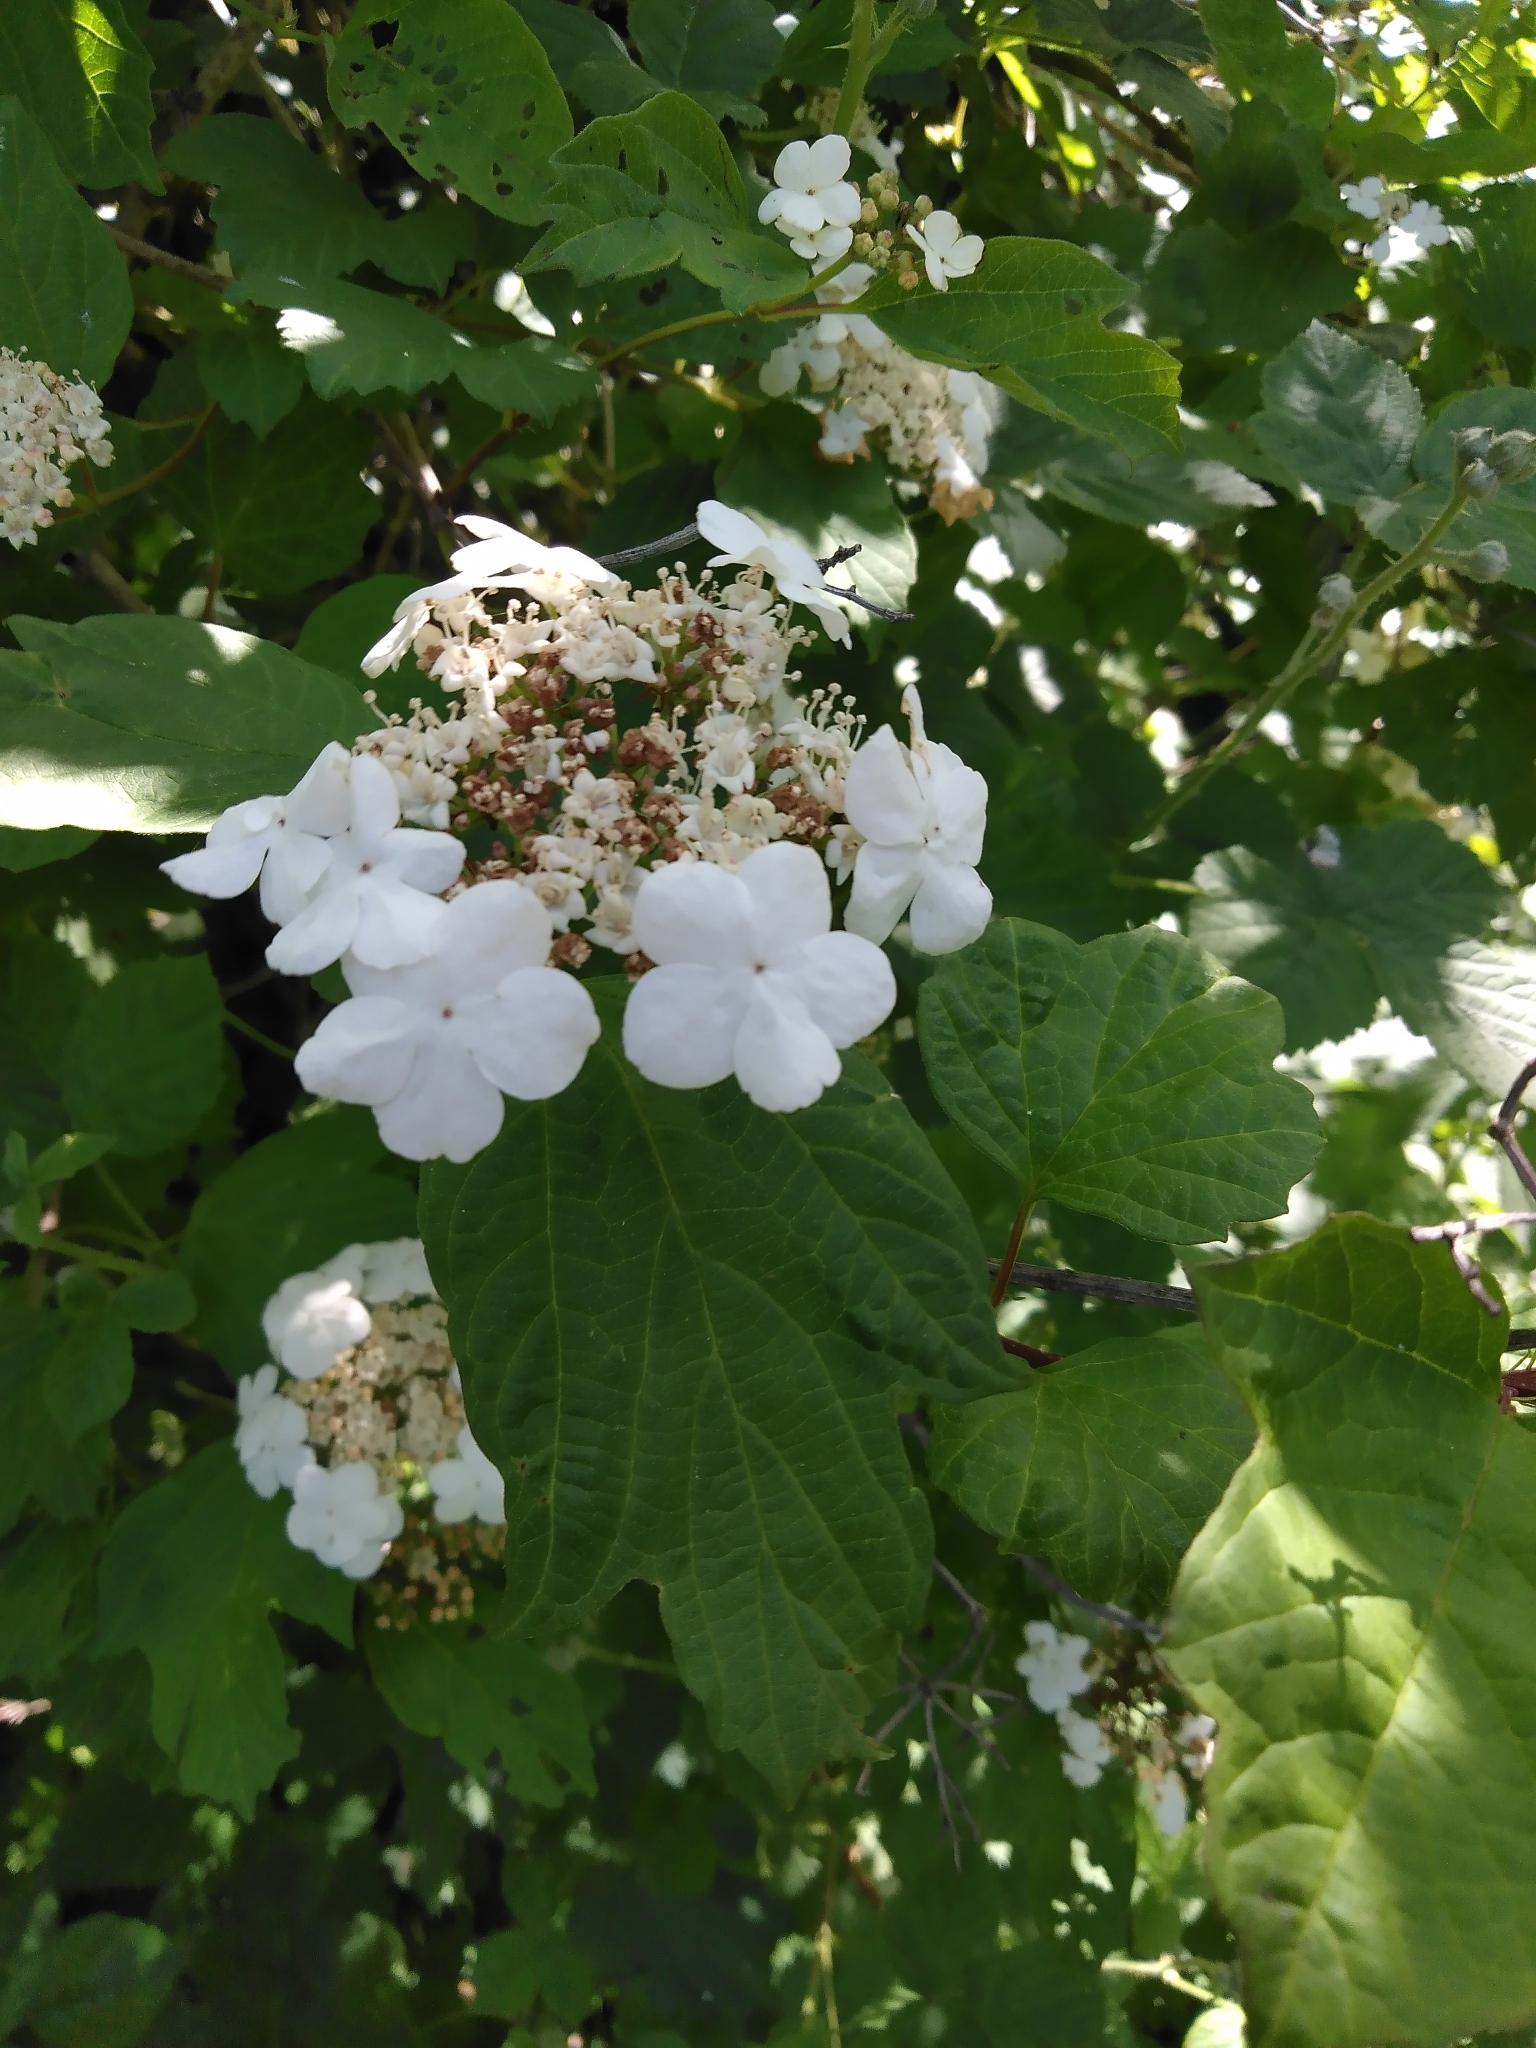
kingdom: Plantae
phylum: Tracheophyta
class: Magnoliopsida
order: Dipsacales
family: Viburnaceae
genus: Viburnum
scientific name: Viburnum opulus
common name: Guelder-rose
